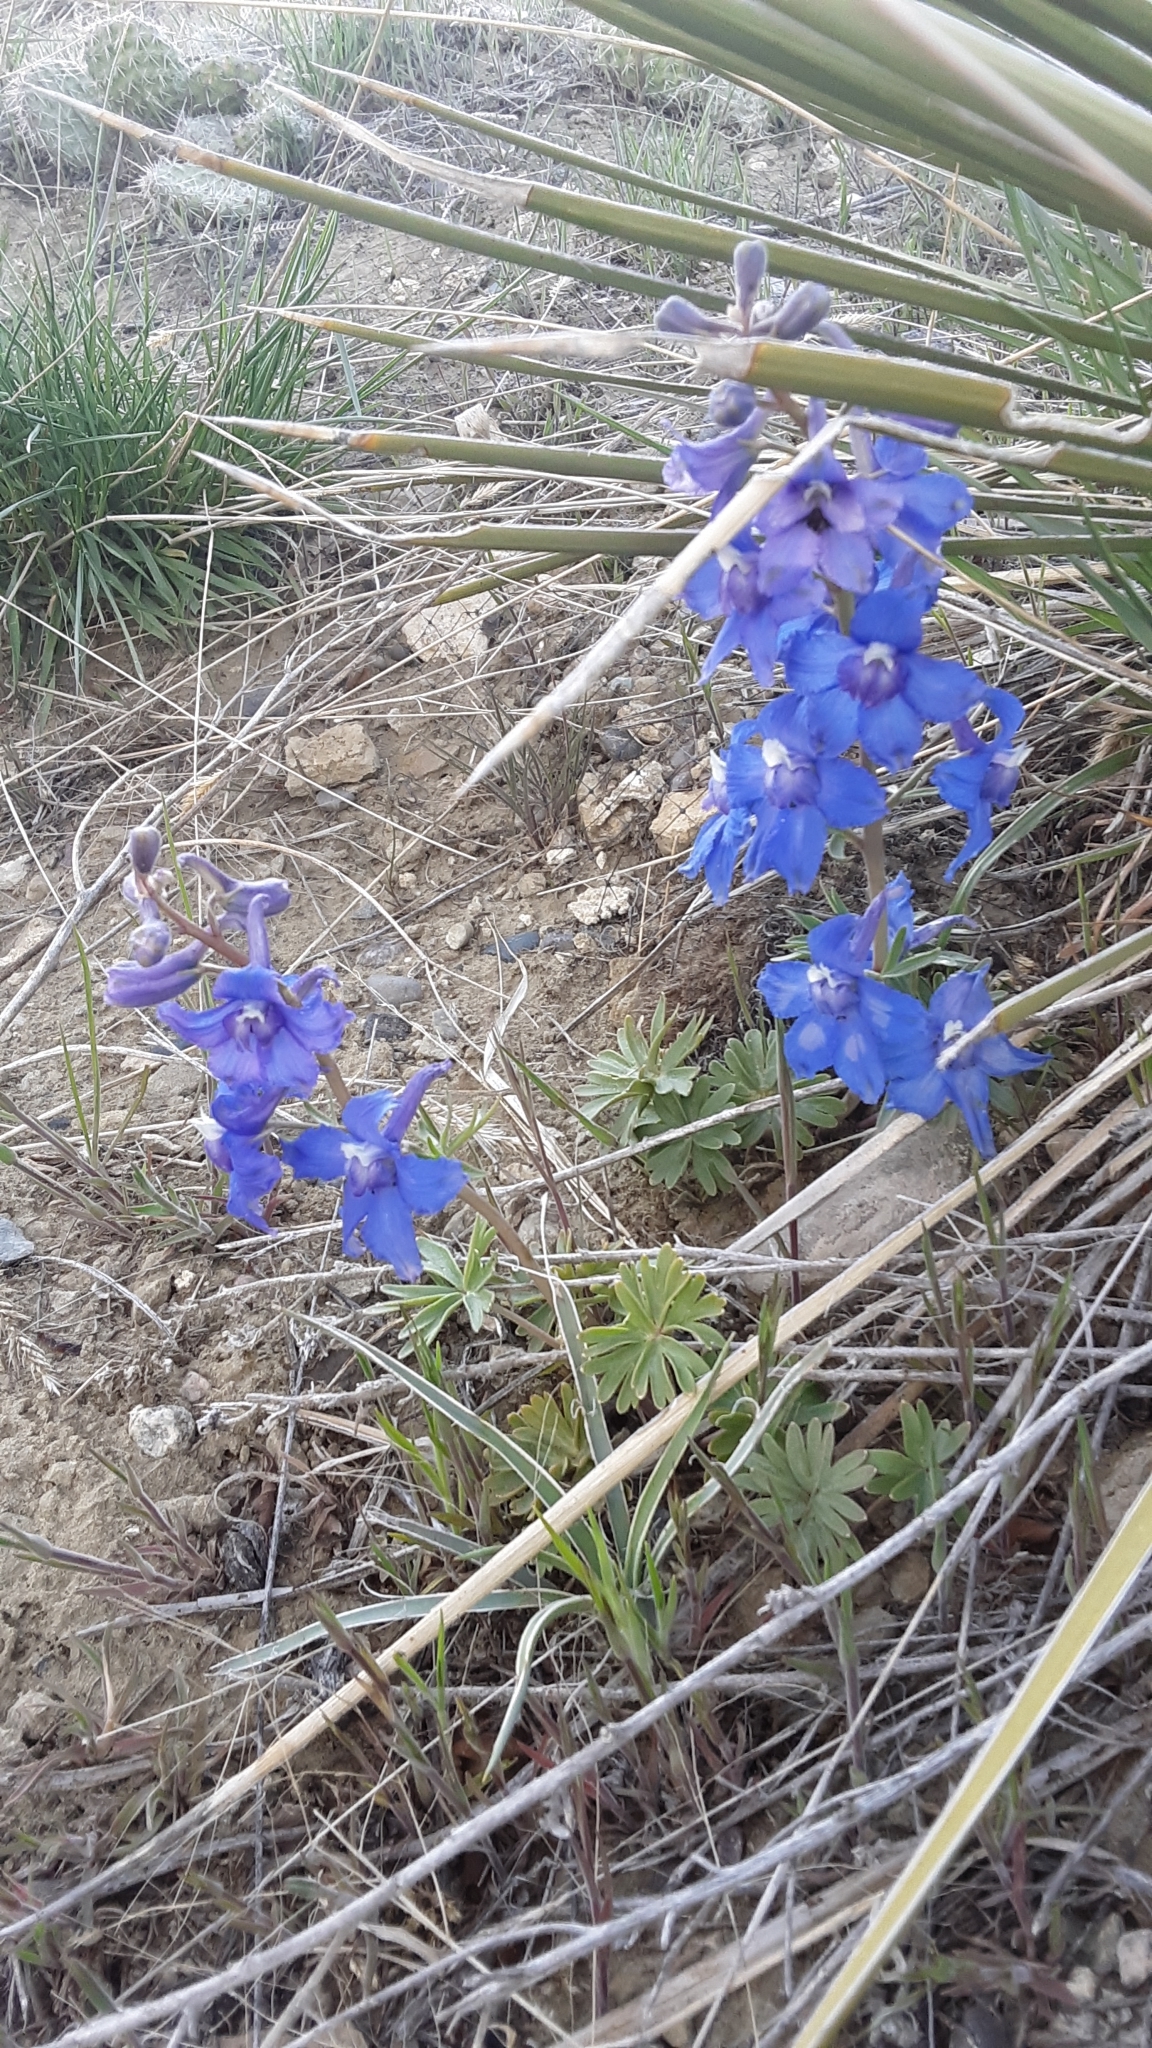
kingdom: Plantae
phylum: Tracheophyta
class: Magnoliopsida
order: Ranunculales
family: Ranunculaceae
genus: Delphinium
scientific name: Delphinium bicolor
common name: Low larkspur
